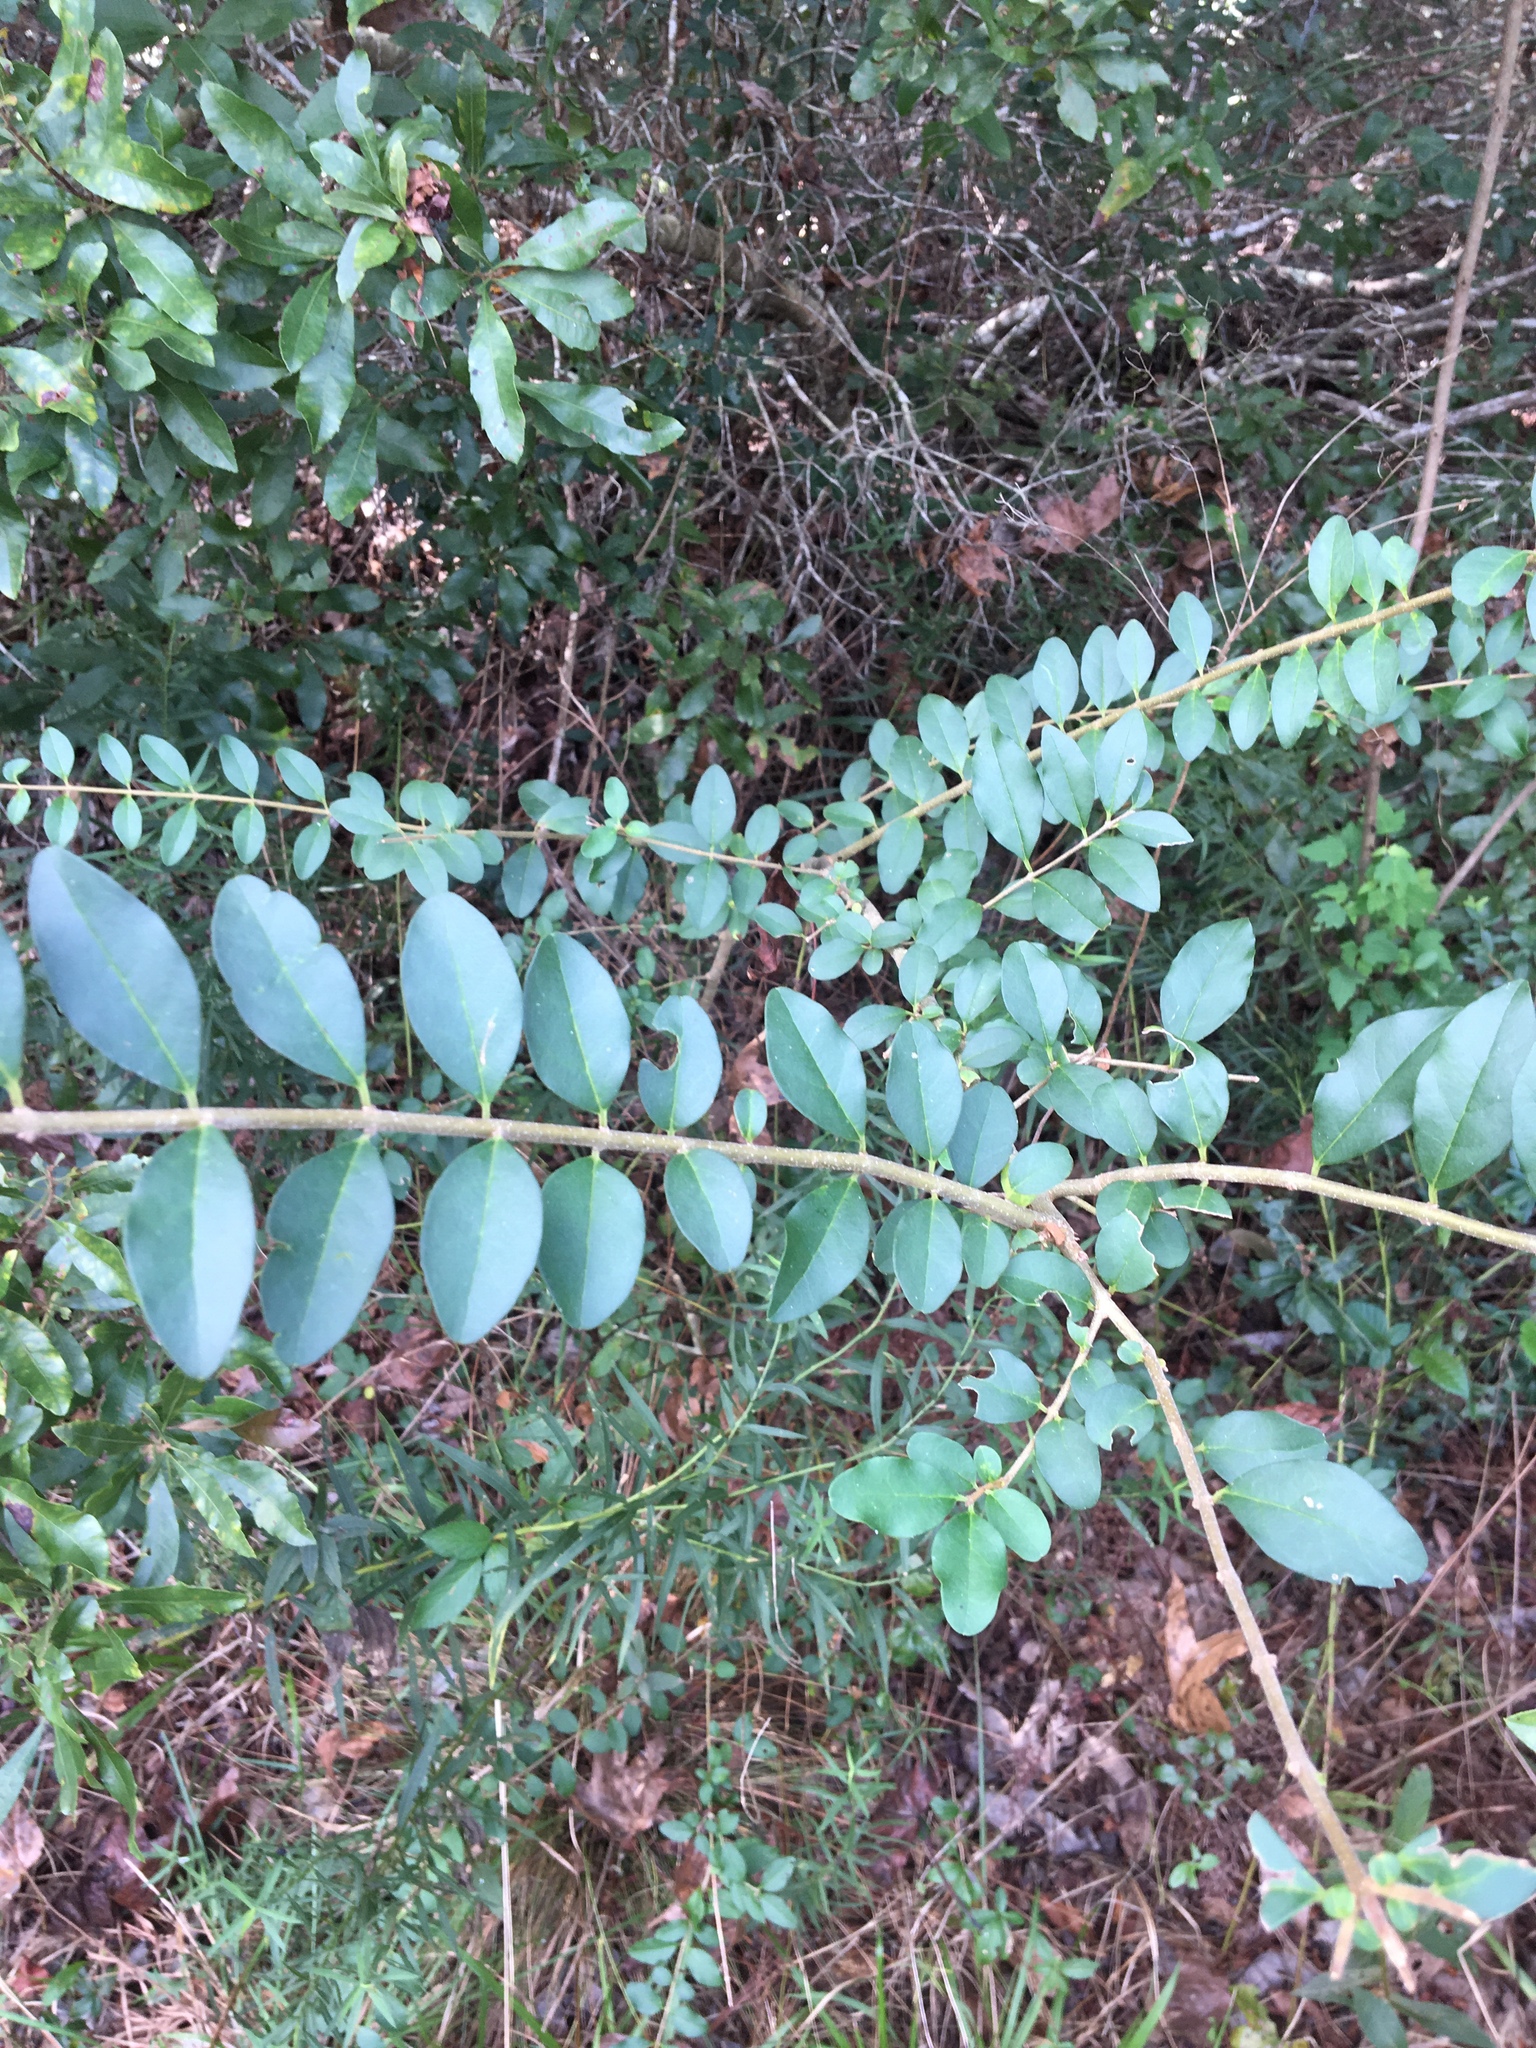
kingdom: Plantae
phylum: Tracheophyta
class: Magnoliopsida
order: Lamiales
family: Oleaceae
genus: Ligustrum
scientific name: Ligustrum sinense
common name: Chinese privet
